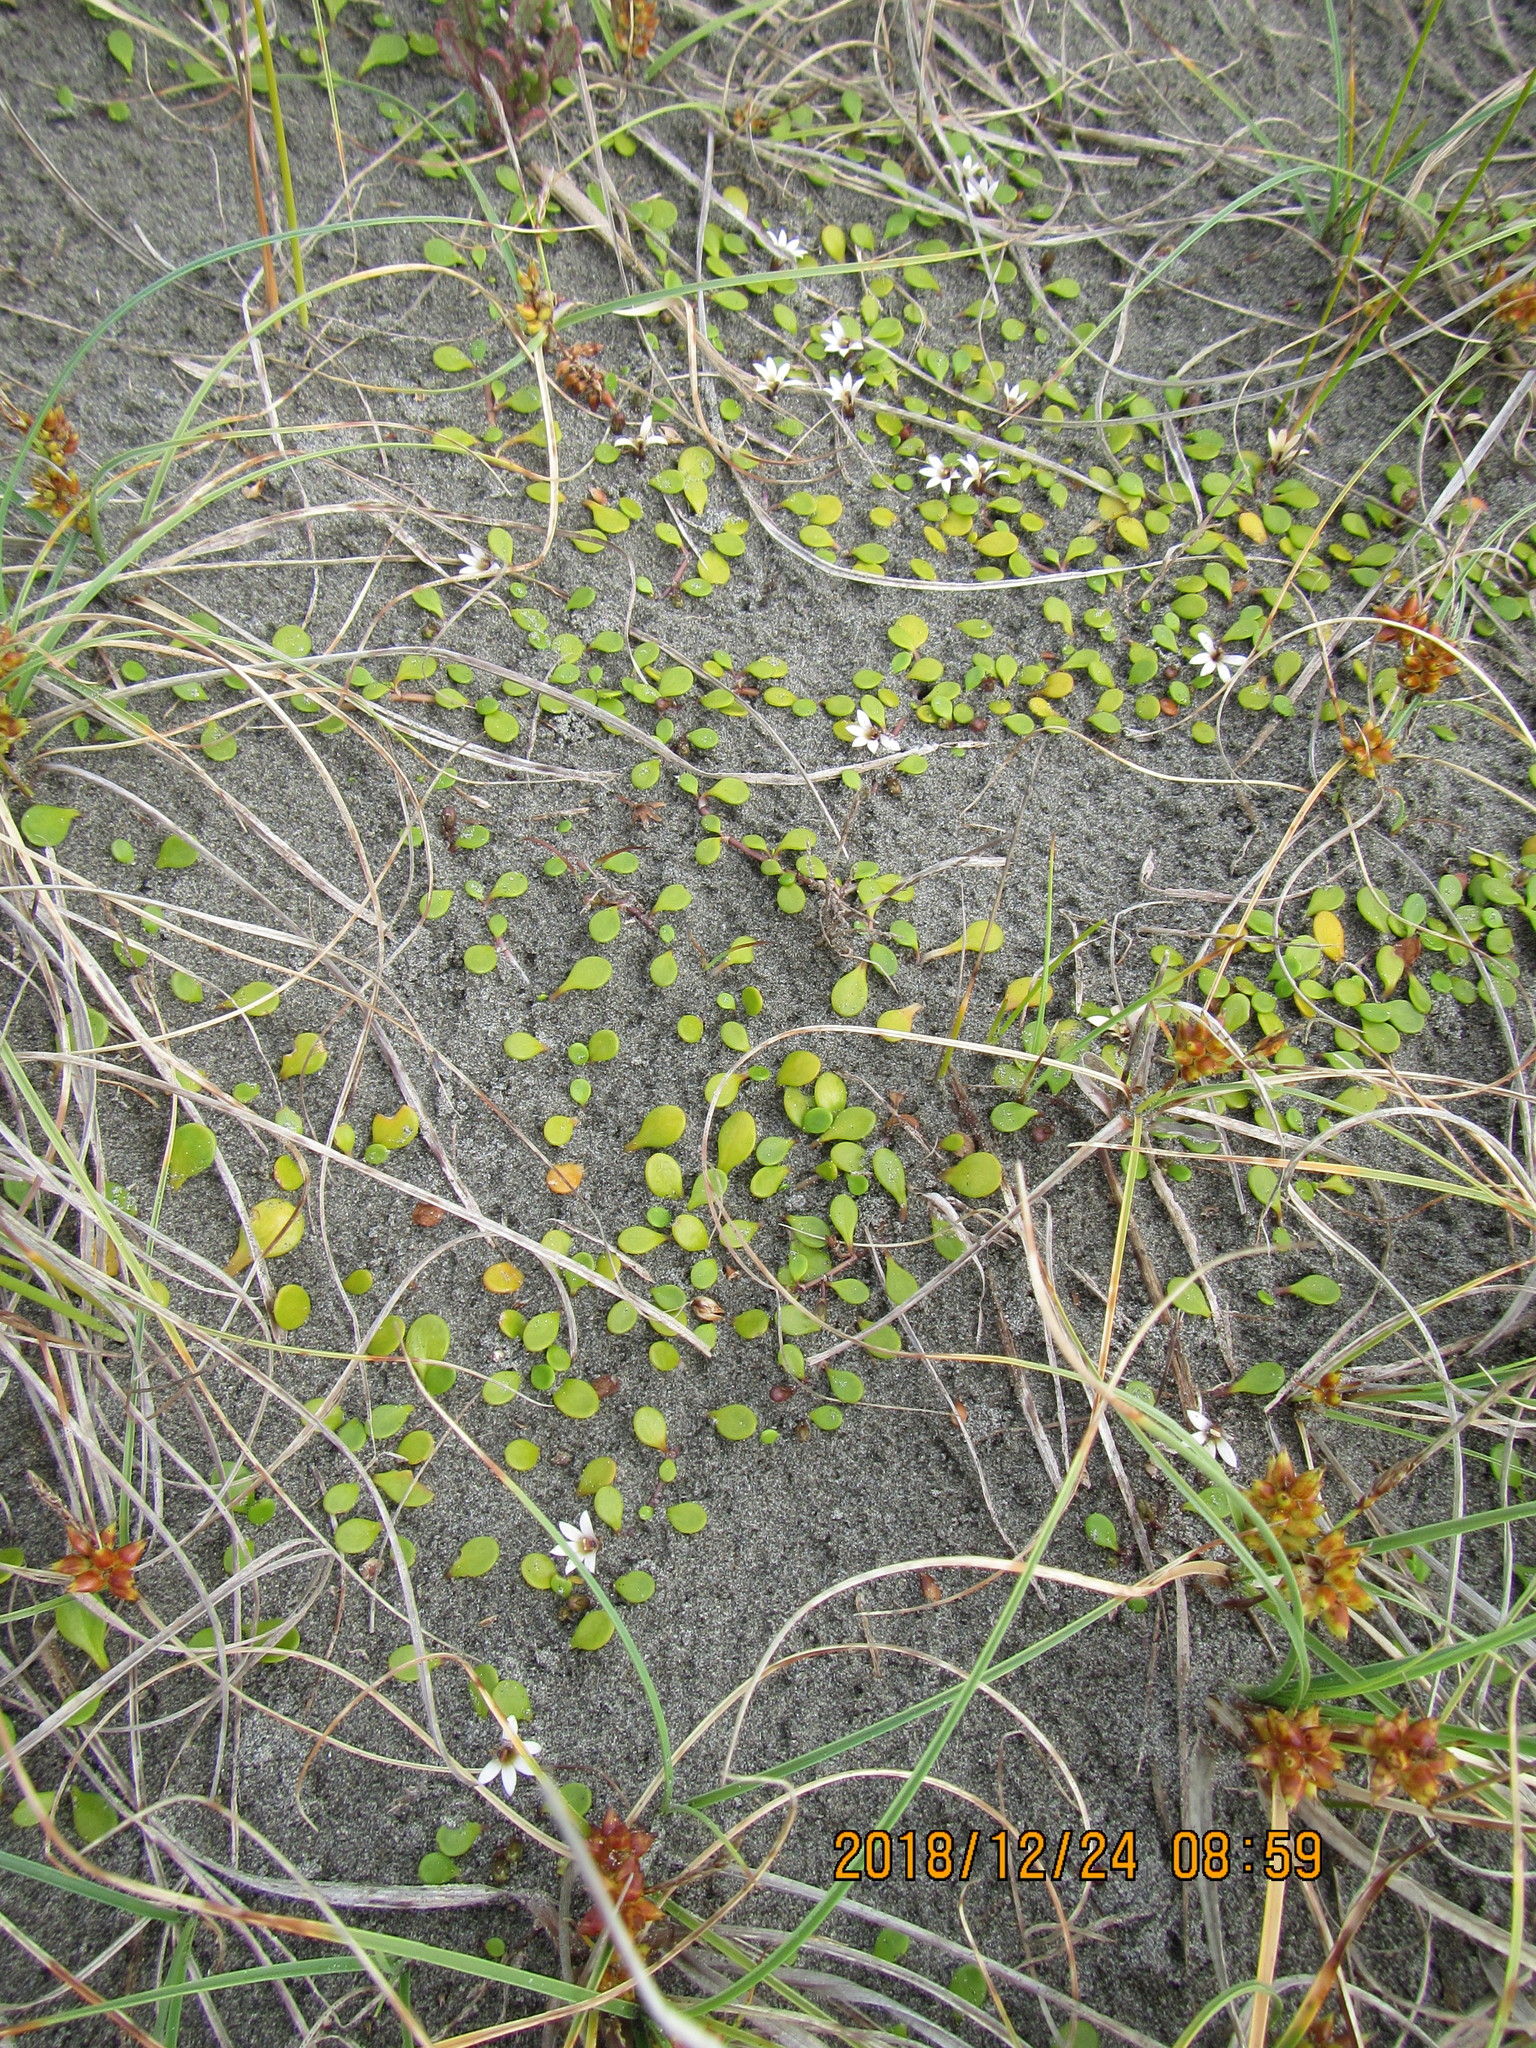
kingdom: Plantae
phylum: Tracheophyta
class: Magnoliopsida
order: Asterales
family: Goodeniaceae
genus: Goodenia
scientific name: Goodenia heenanii
